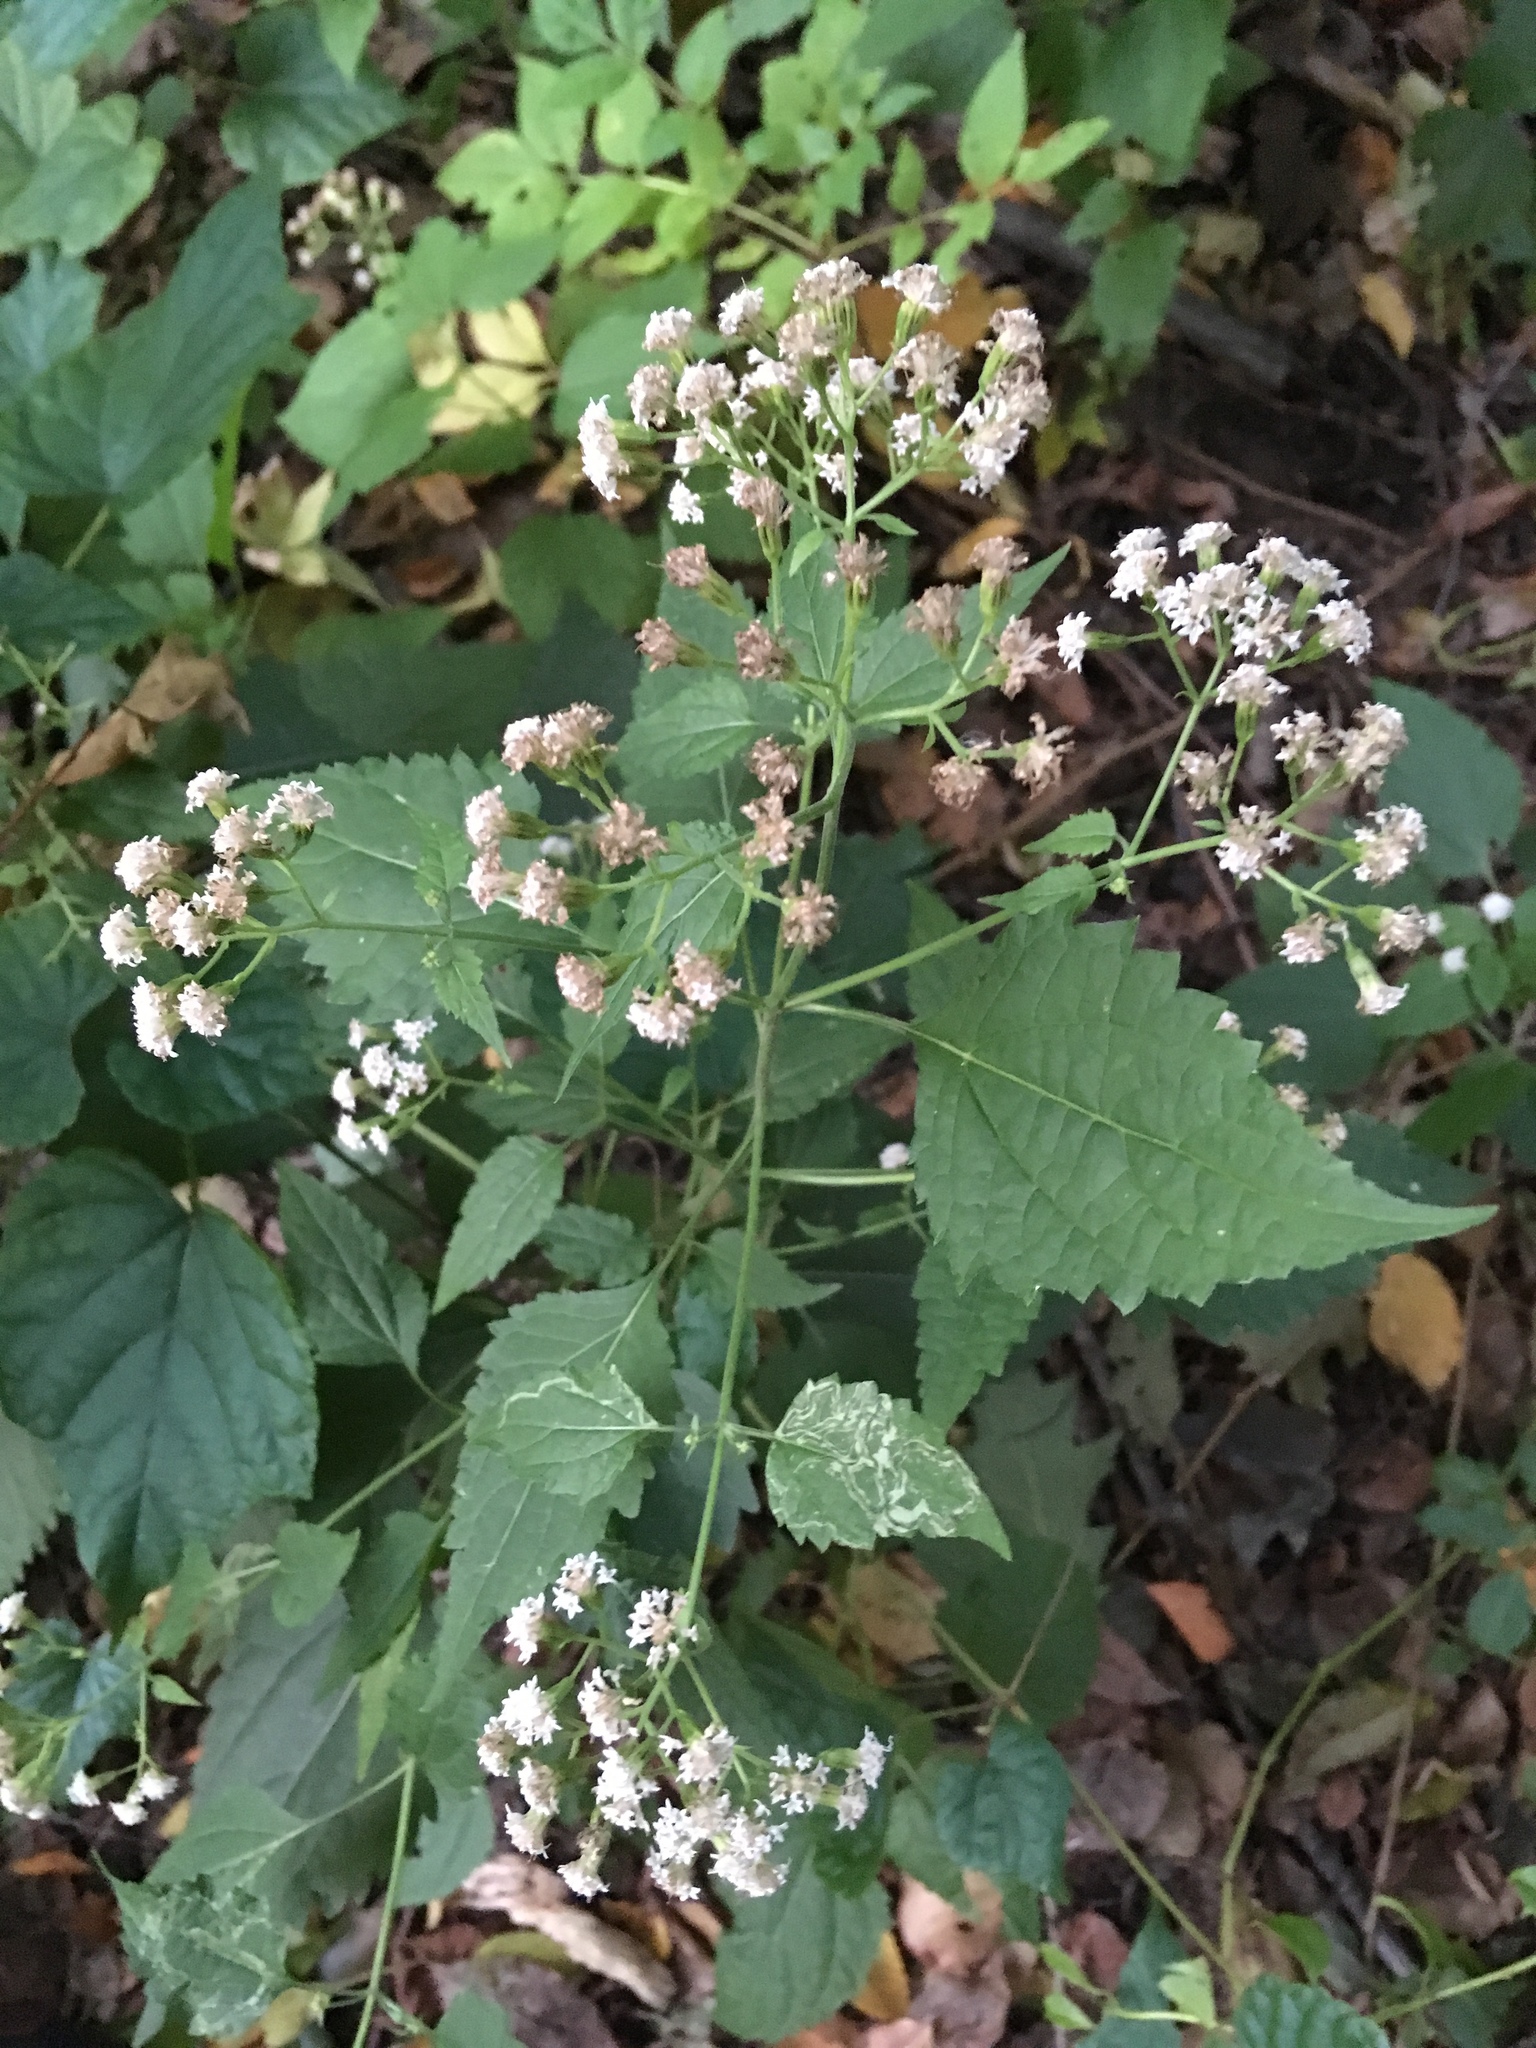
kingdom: Plantae
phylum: Tracheophyta
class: Magnoliopsida
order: Asterales
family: Asteraceae
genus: Ageratina
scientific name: Ageratina altissima
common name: White snakeroot
